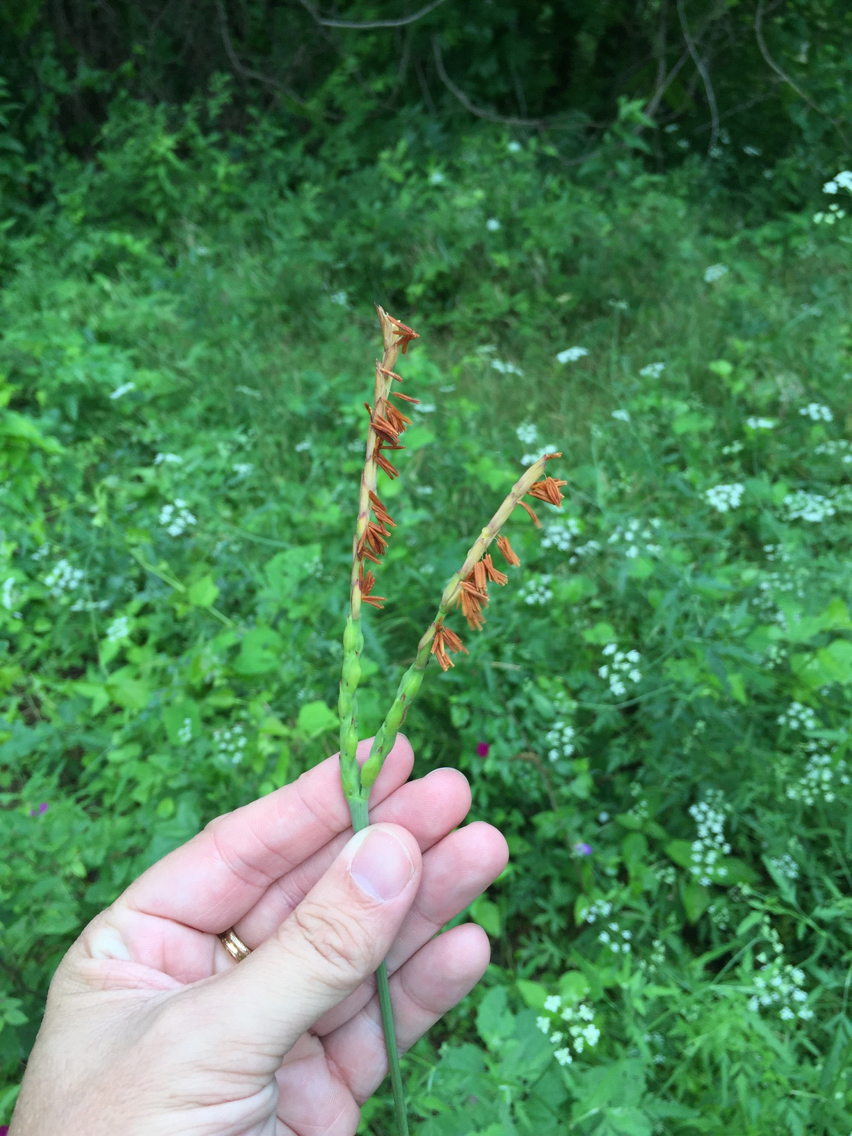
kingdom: Plantae
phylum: Tracheophyta
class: Liliopsida
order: Poales
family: Poaceae
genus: Tripsacum
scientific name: Tripsacum dactyloides
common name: Buffalo-grass
